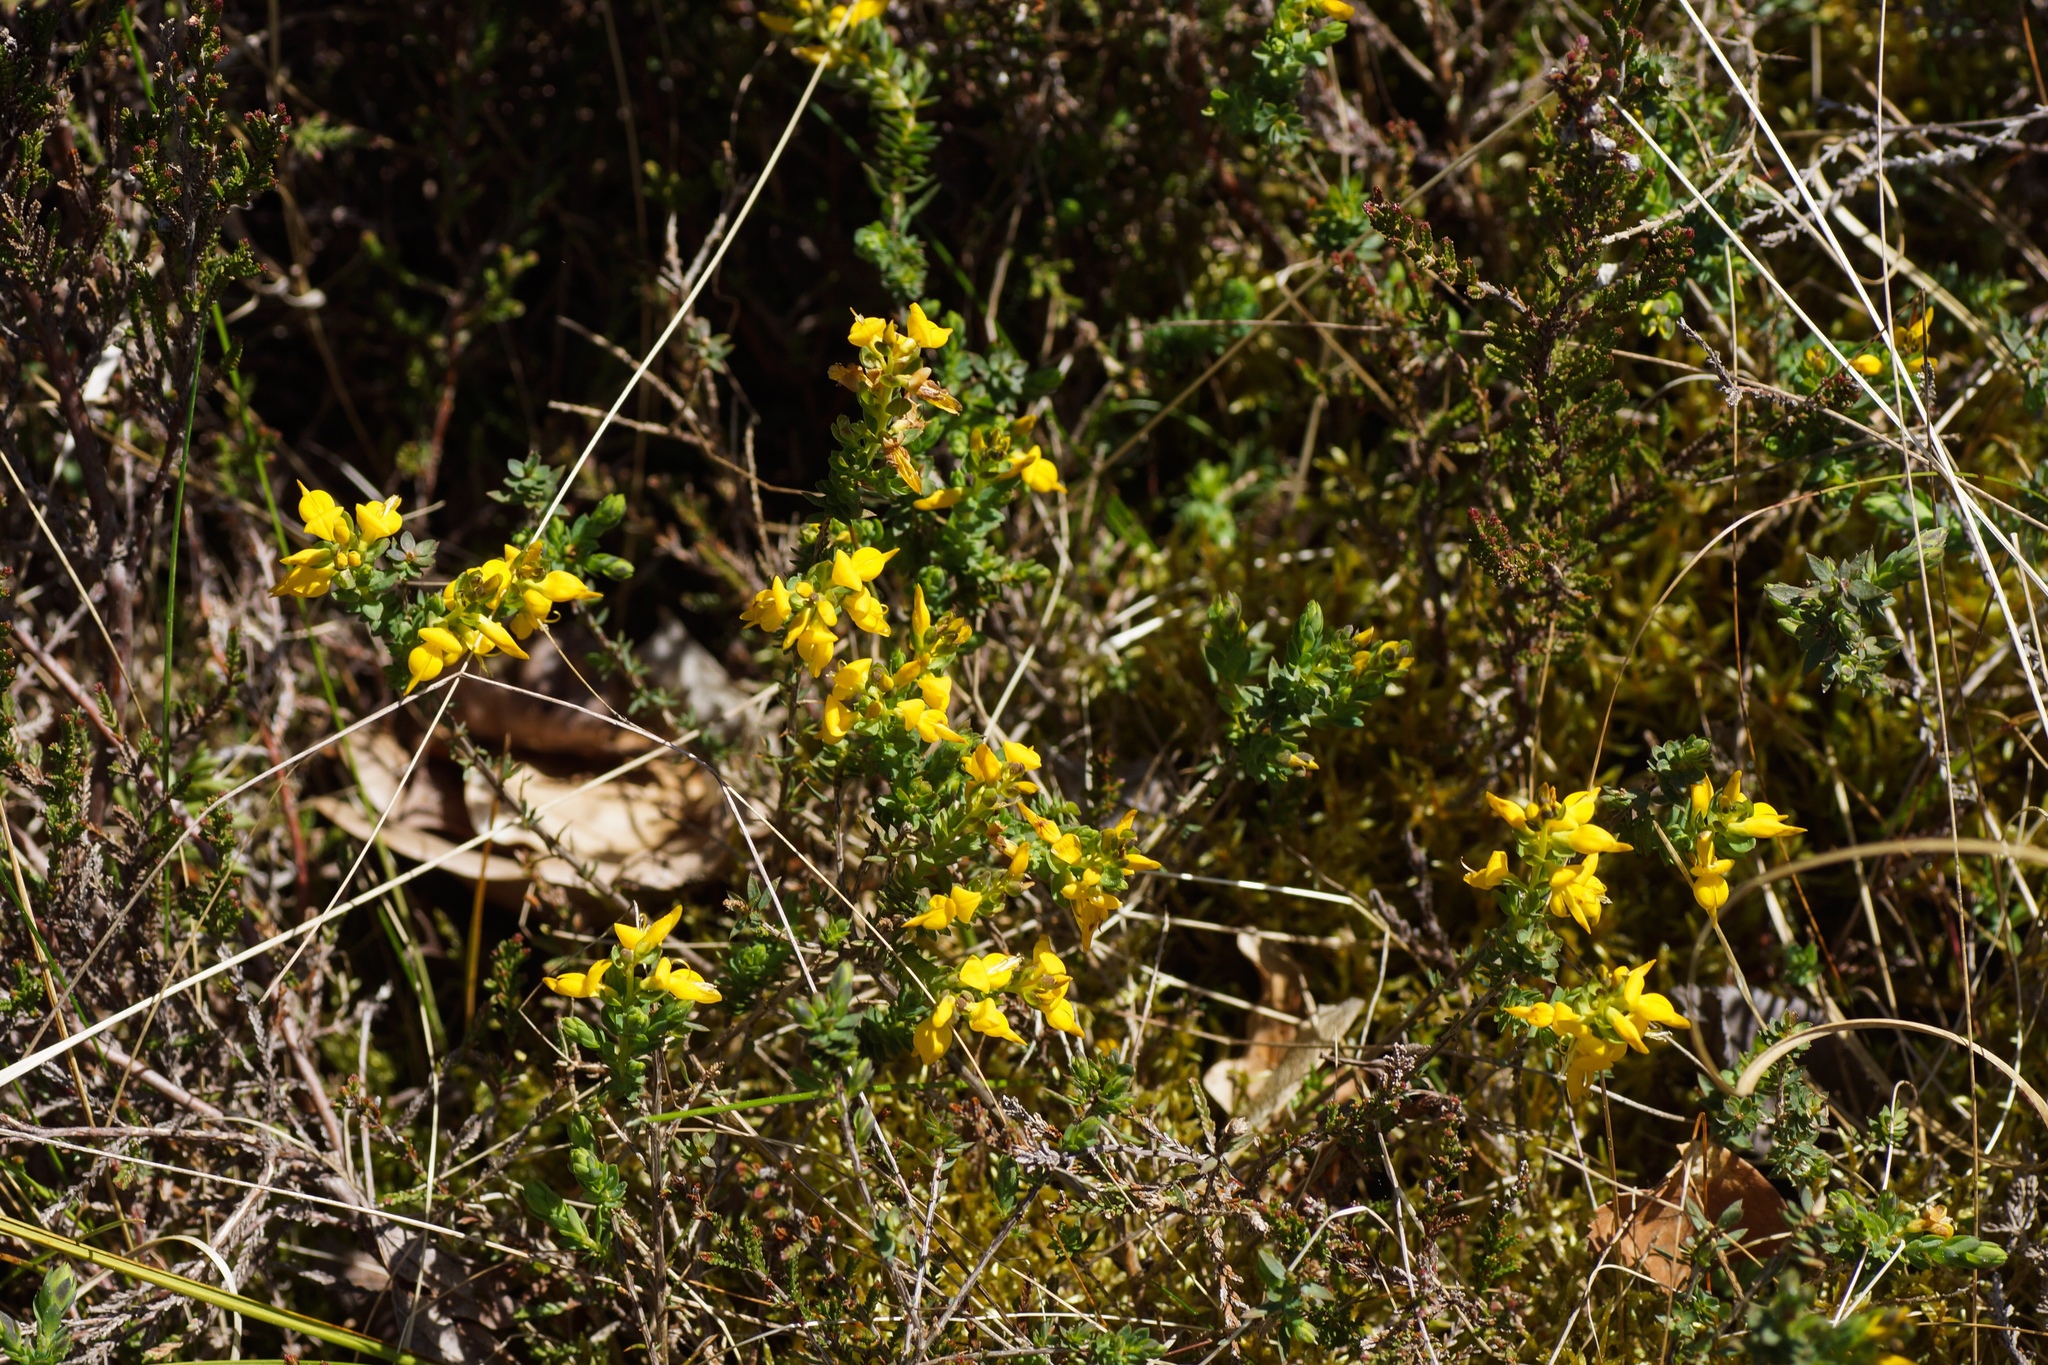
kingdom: Plantae
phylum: Tracheophyta
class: Magnoliopsida
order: Fabales
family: Fabaceae
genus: Genista
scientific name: Genista anglica
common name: Petty whin
